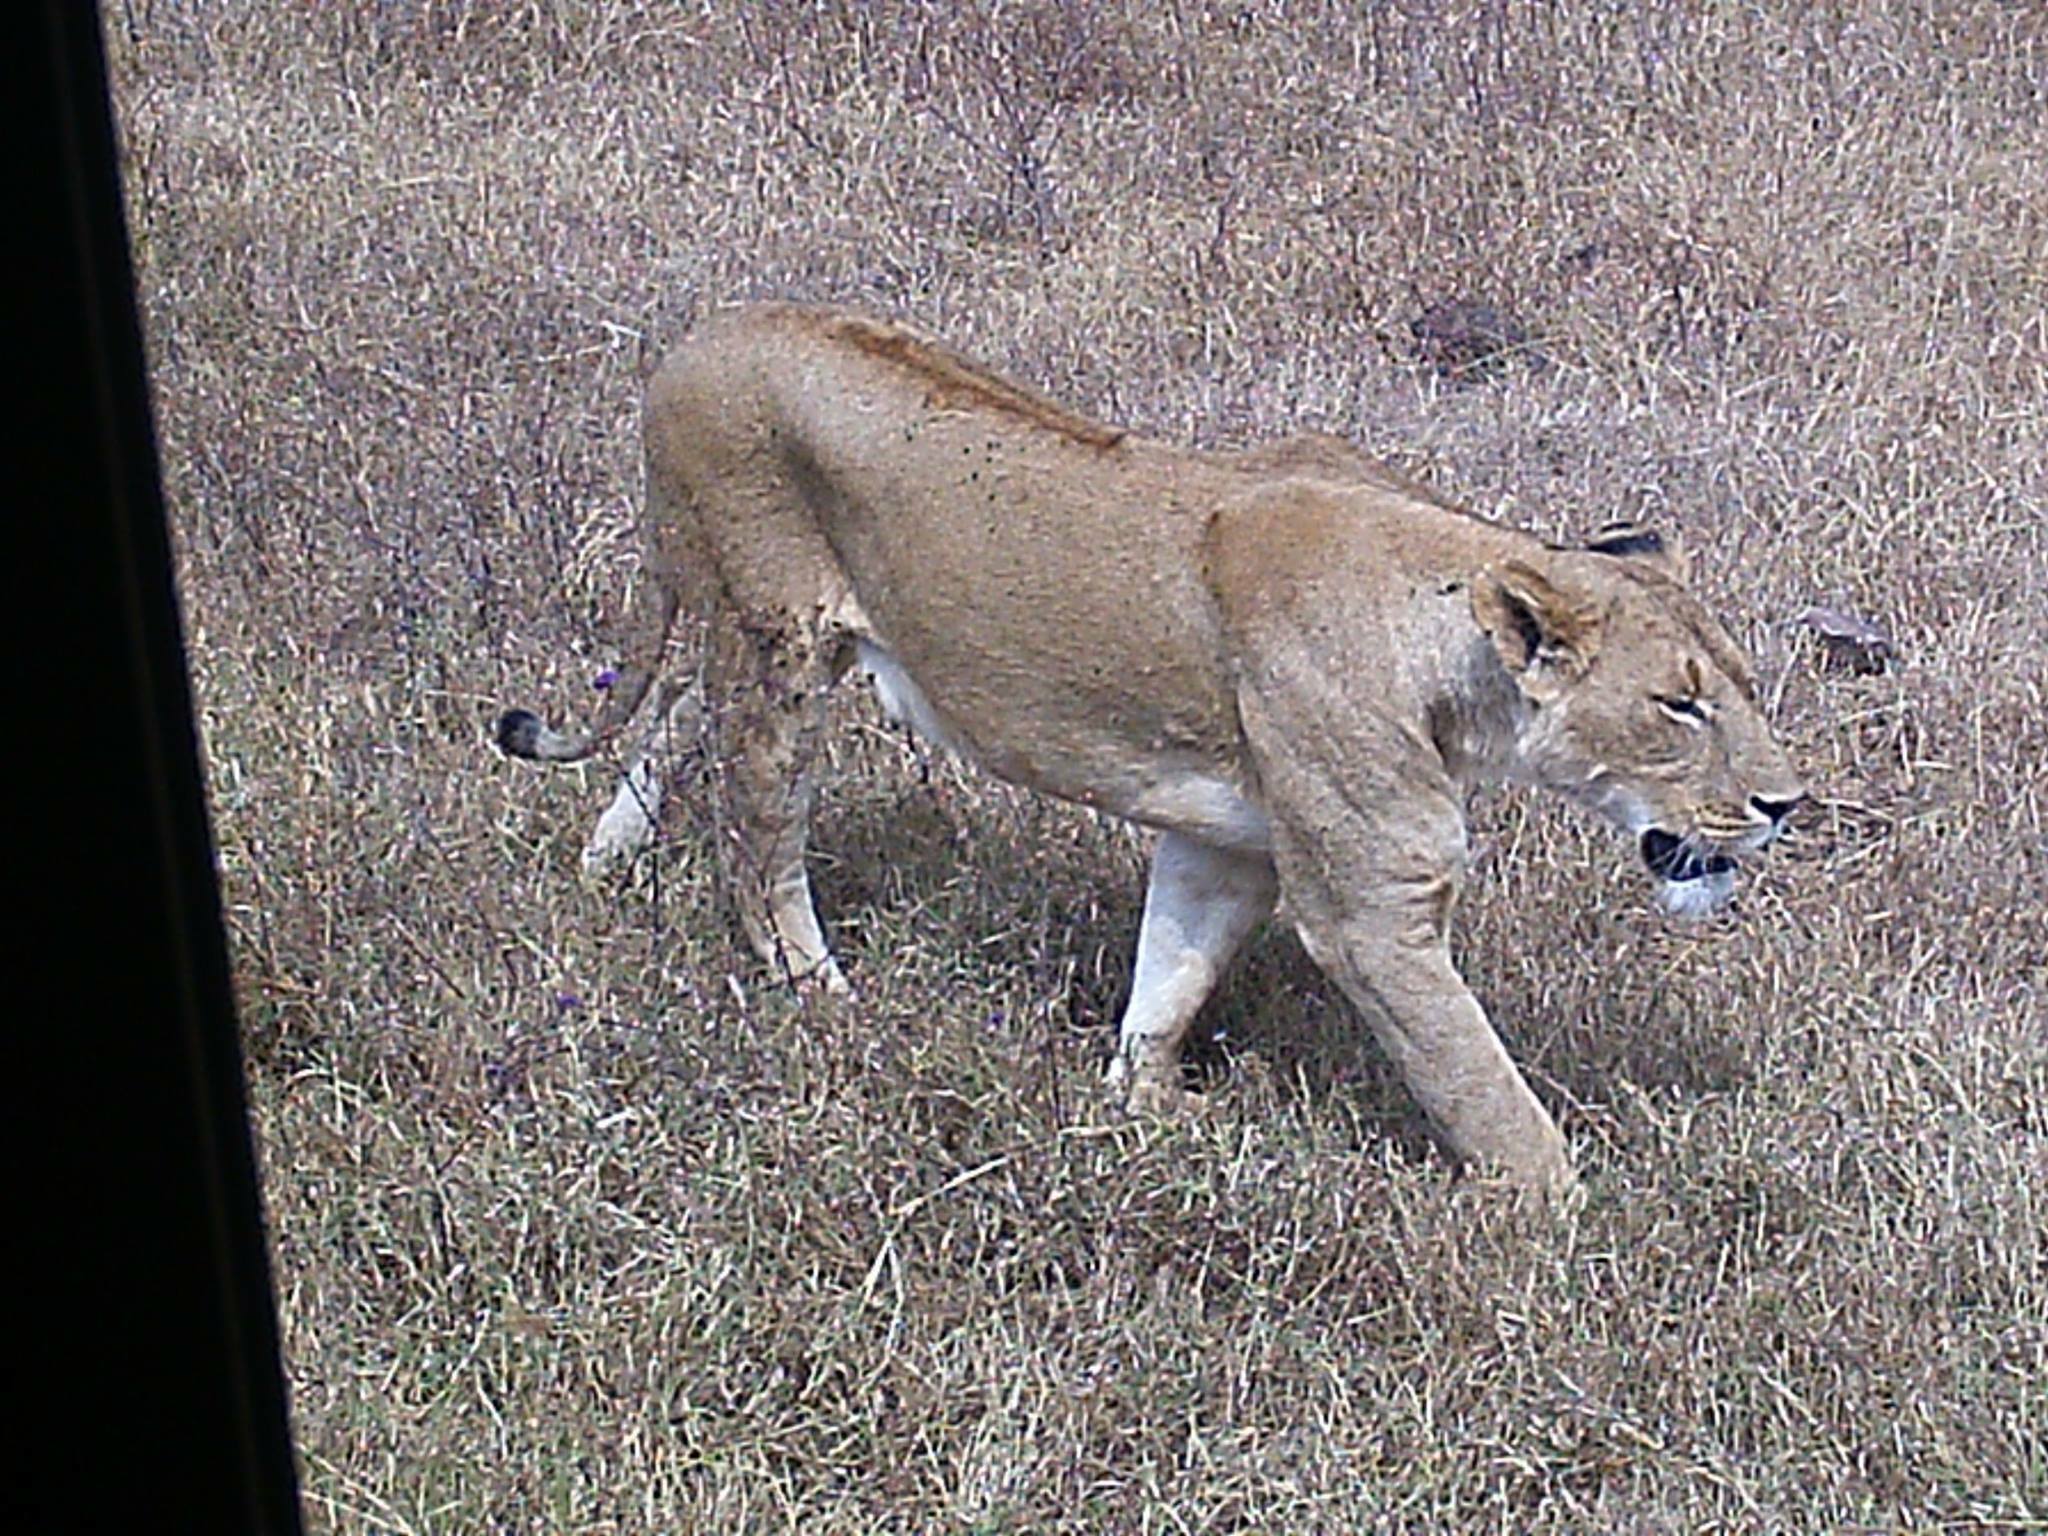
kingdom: Animalia
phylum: Chordata
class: Mammalia
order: Carnivora
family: Felidae
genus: Panthera
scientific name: Panthera leo
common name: Lion
